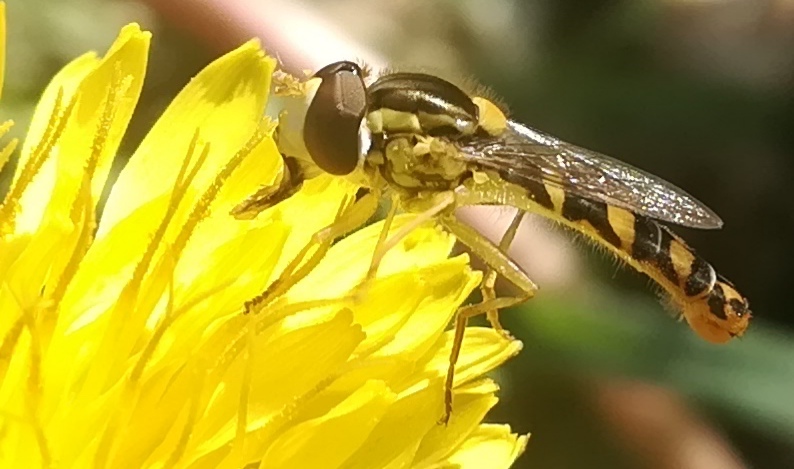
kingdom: Animalia
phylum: Arthropoda
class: Insecta
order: Diptera
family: Syrphidae
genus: Sphaerophoria
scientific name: Sphaerophoria scripta
